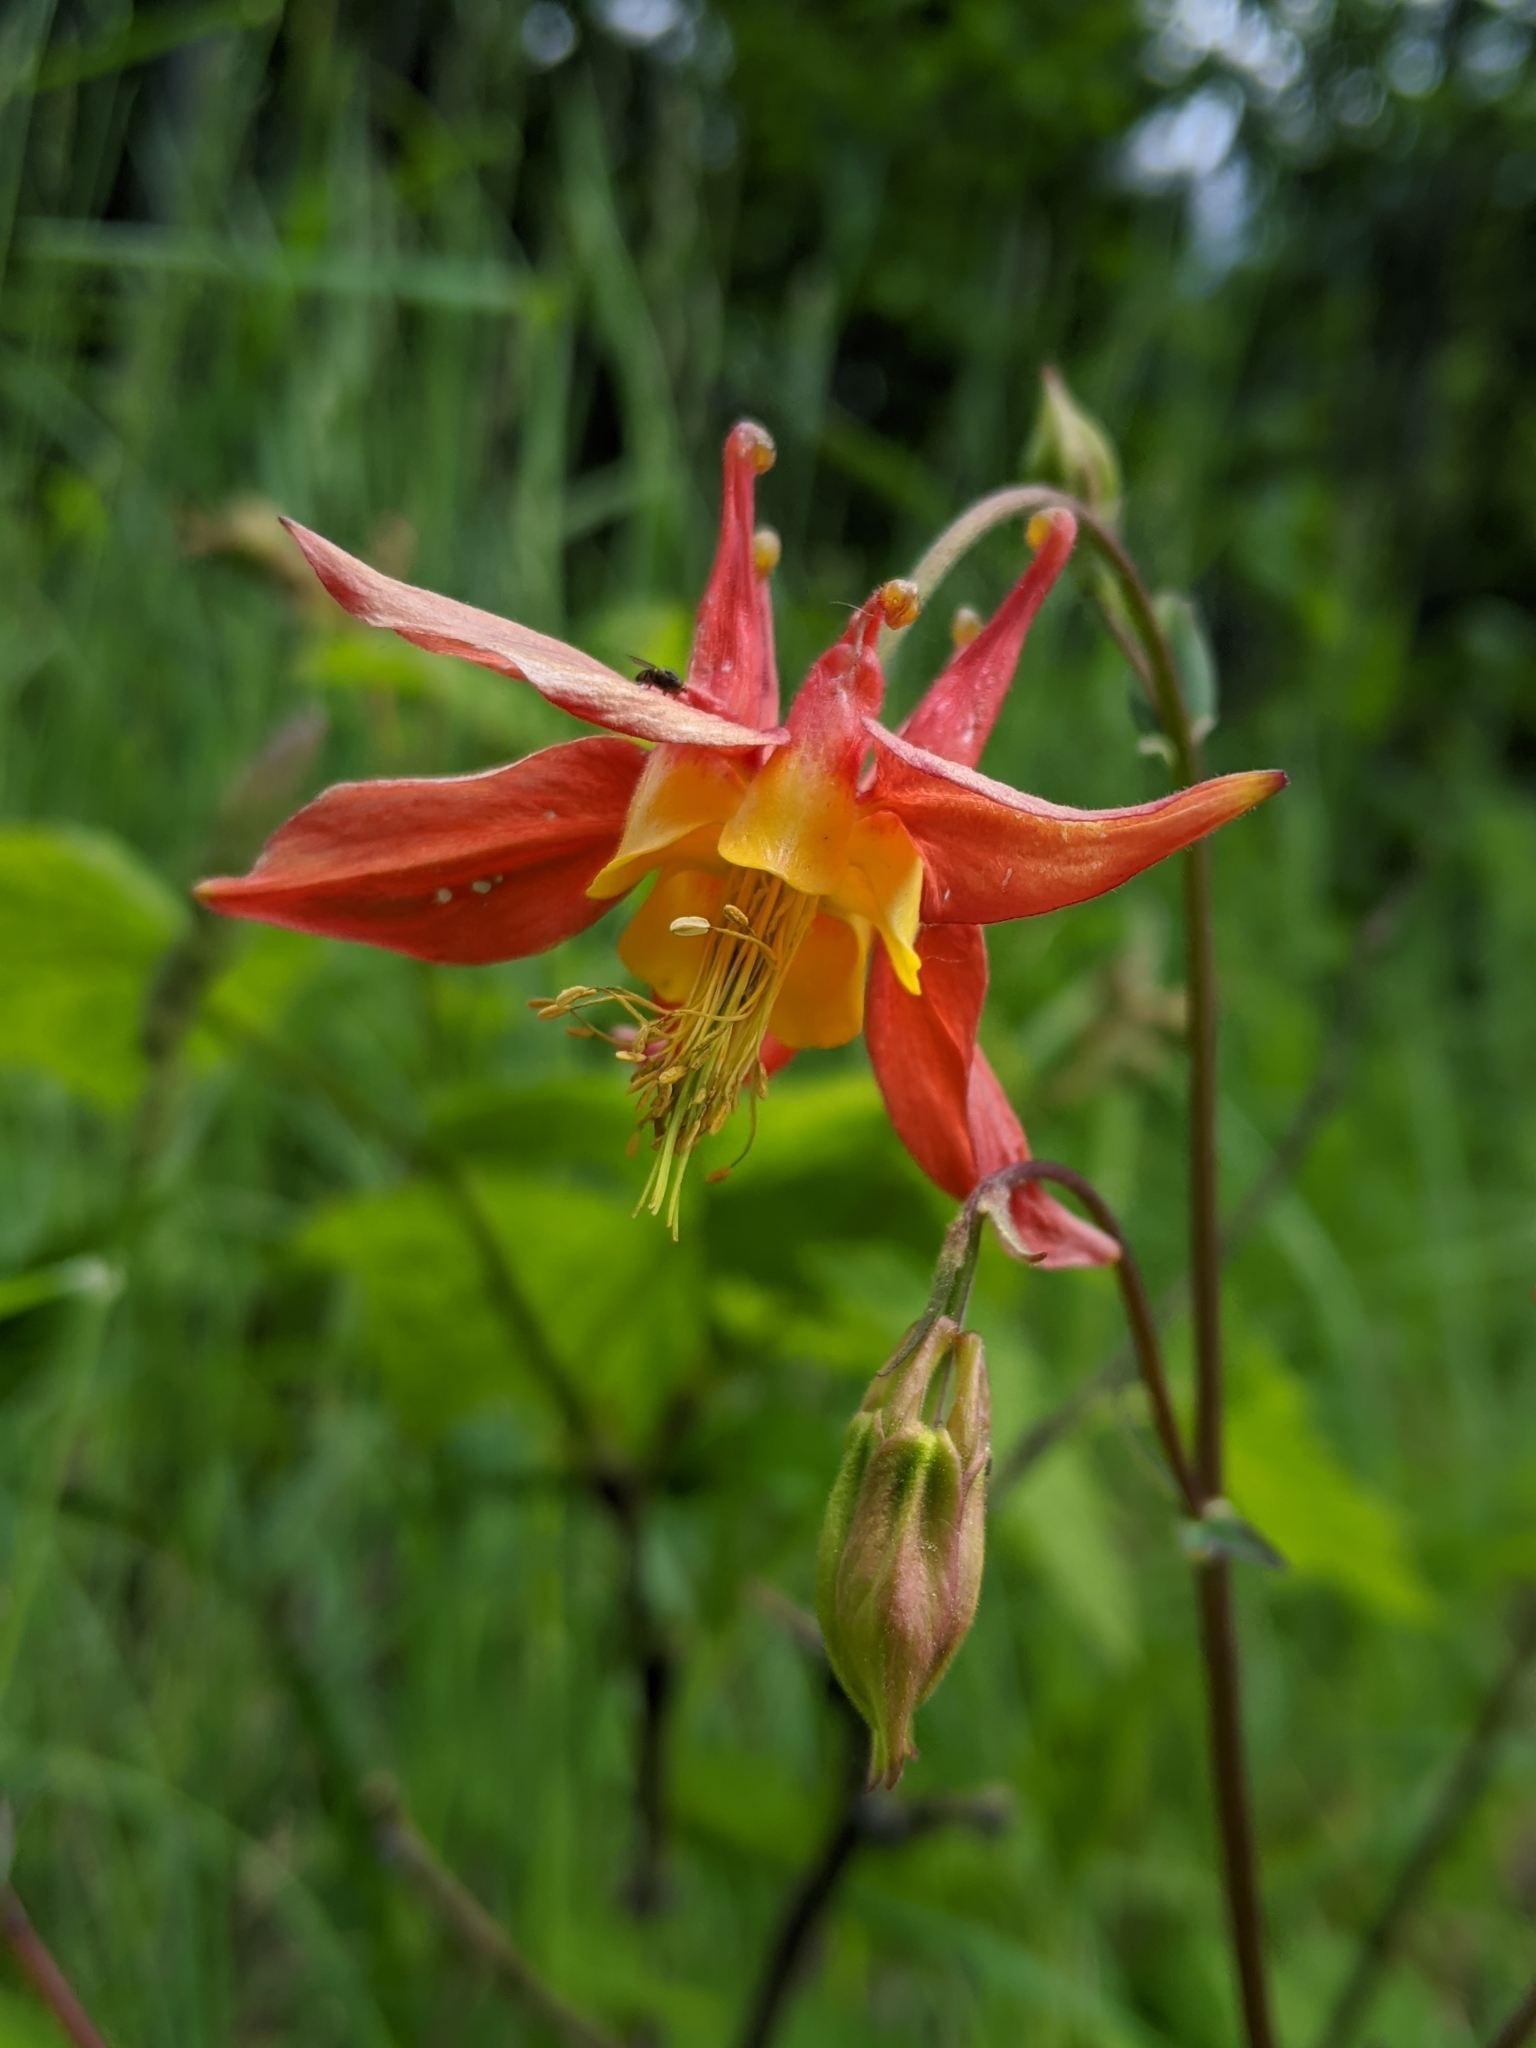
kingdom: Plantae
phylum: Tracheophyta
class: Magnoliopsida
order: Ranunculales
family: Ranunculaceae
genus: Aquilegia
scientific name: Aquilegia formosa
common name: Sitka columbine
